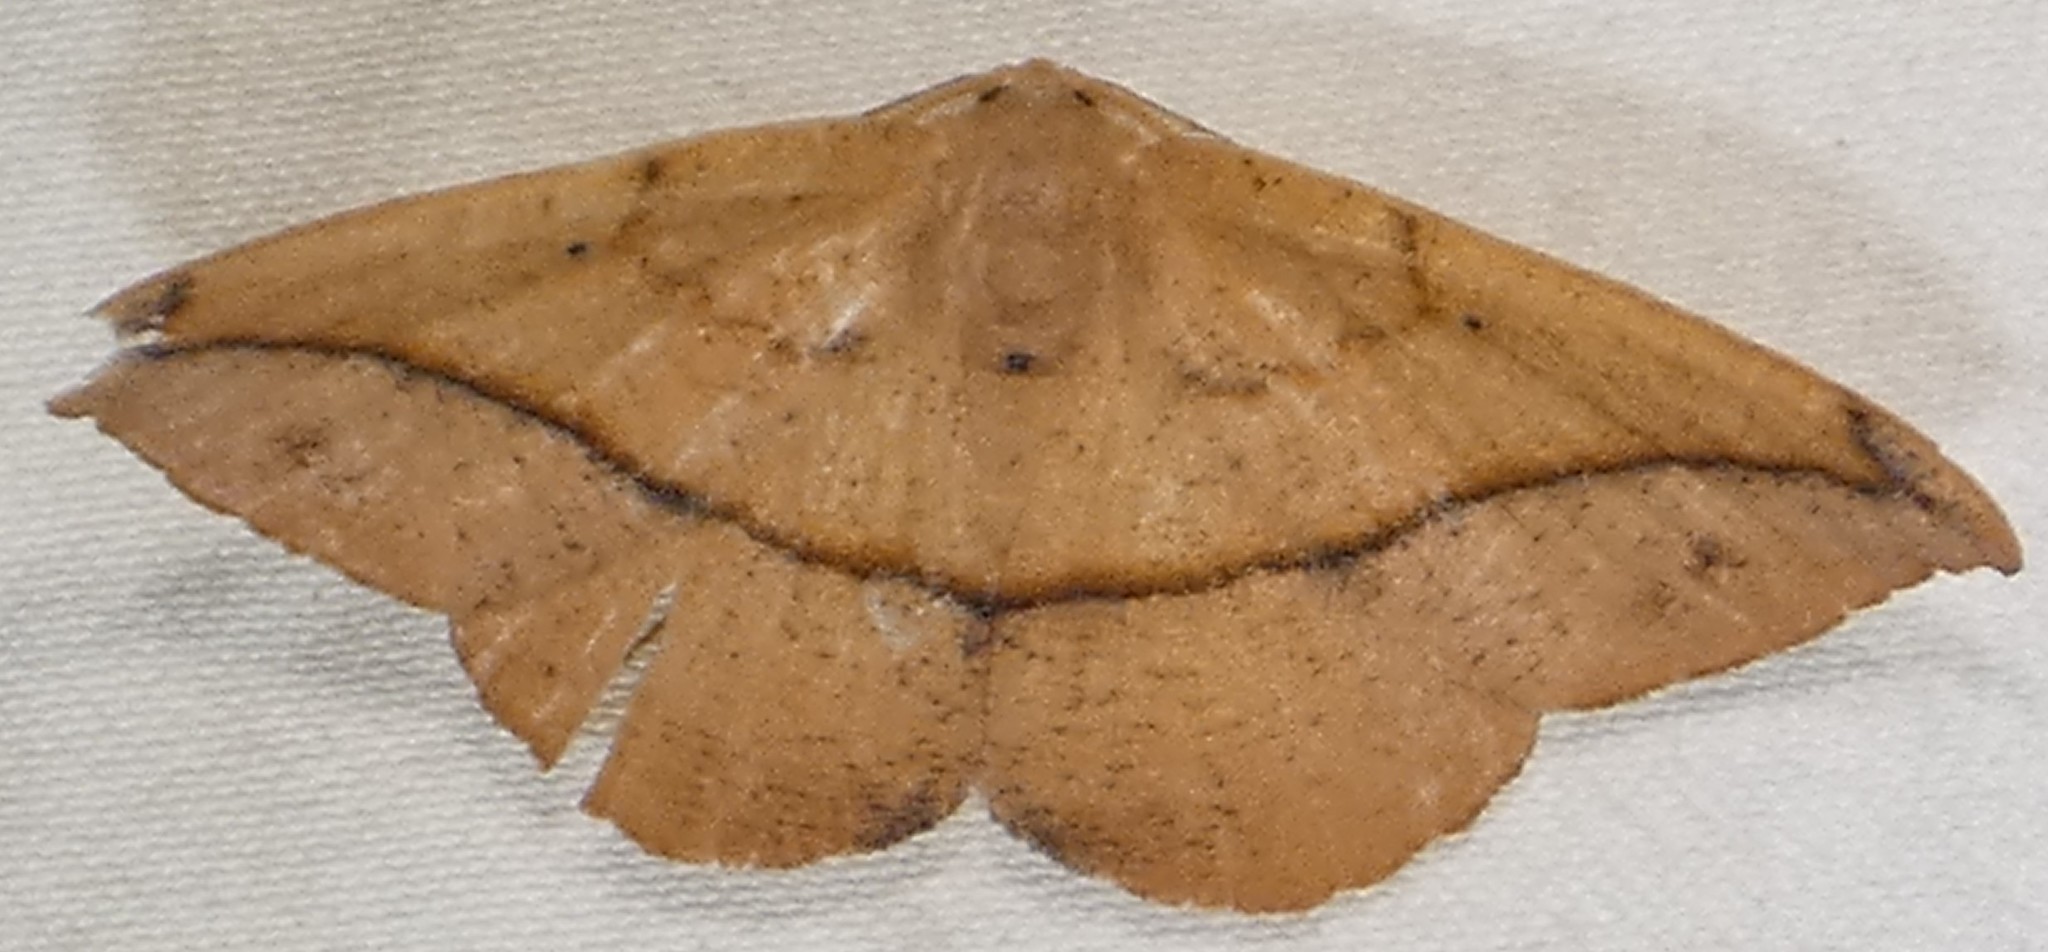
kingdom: Animalia
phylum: Arthropoda
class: Insecta
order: Lepidoptera
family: Geometridae
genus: Patalene
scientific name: Patalene olyzonaria
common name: Juniper geometer moth
